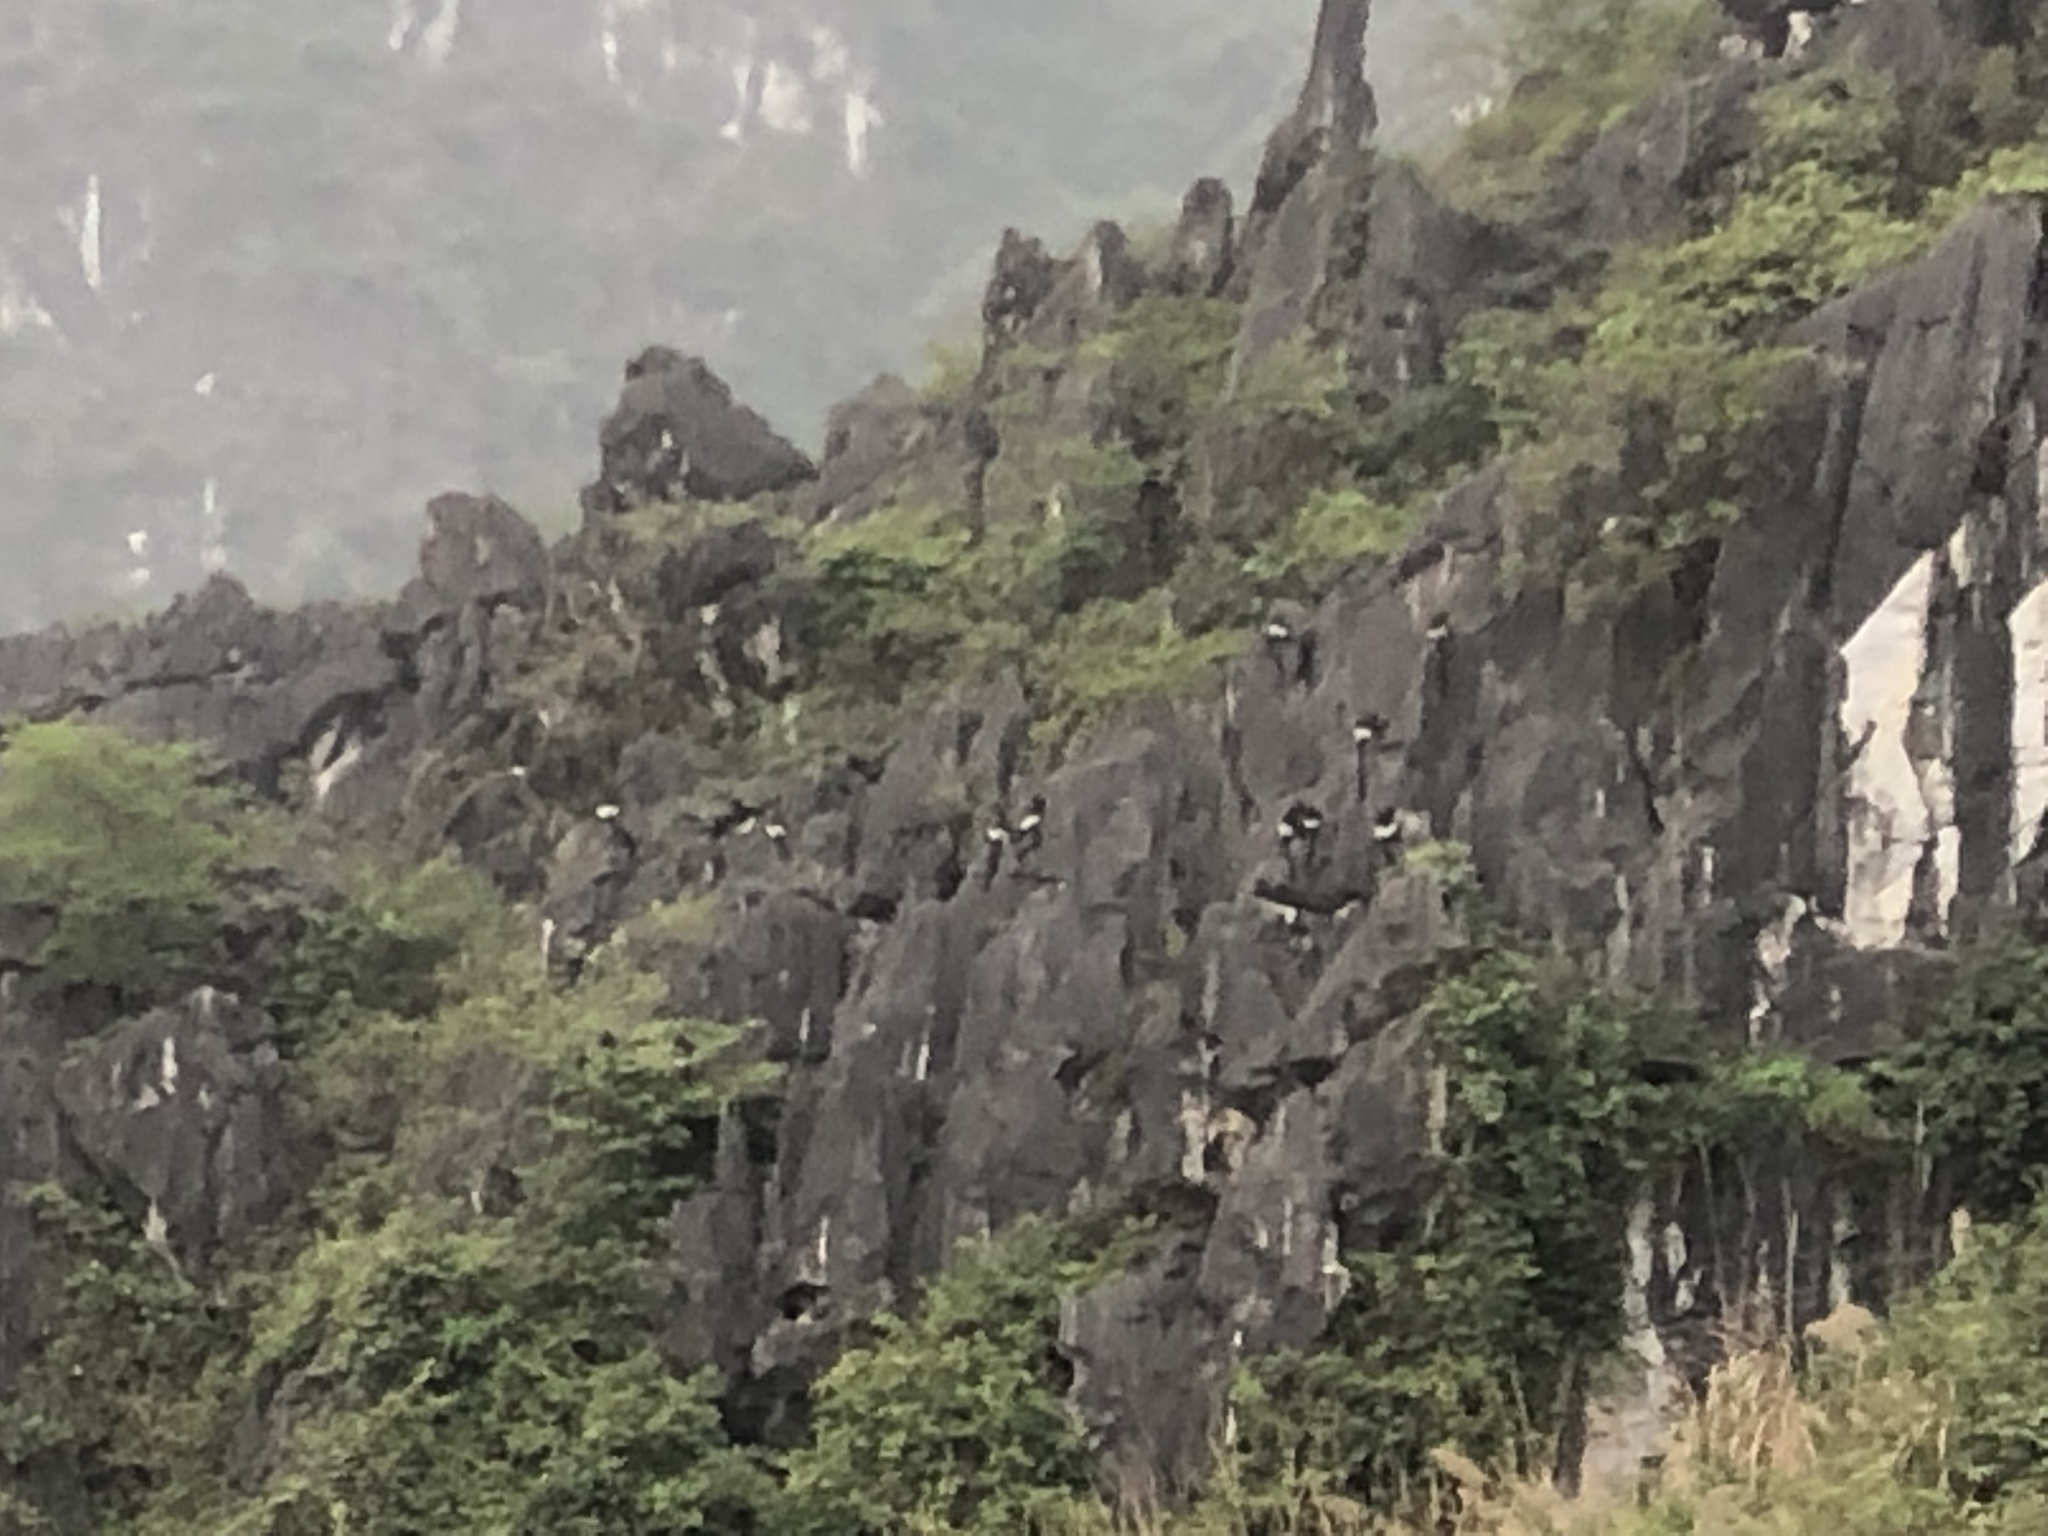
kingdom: Animalia
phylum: Chordata
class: Mammalia
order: Primates
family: Cercopithecidae
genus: Trachypithecus
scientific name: Trachypithecus delacouri
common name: Delacour's langur
